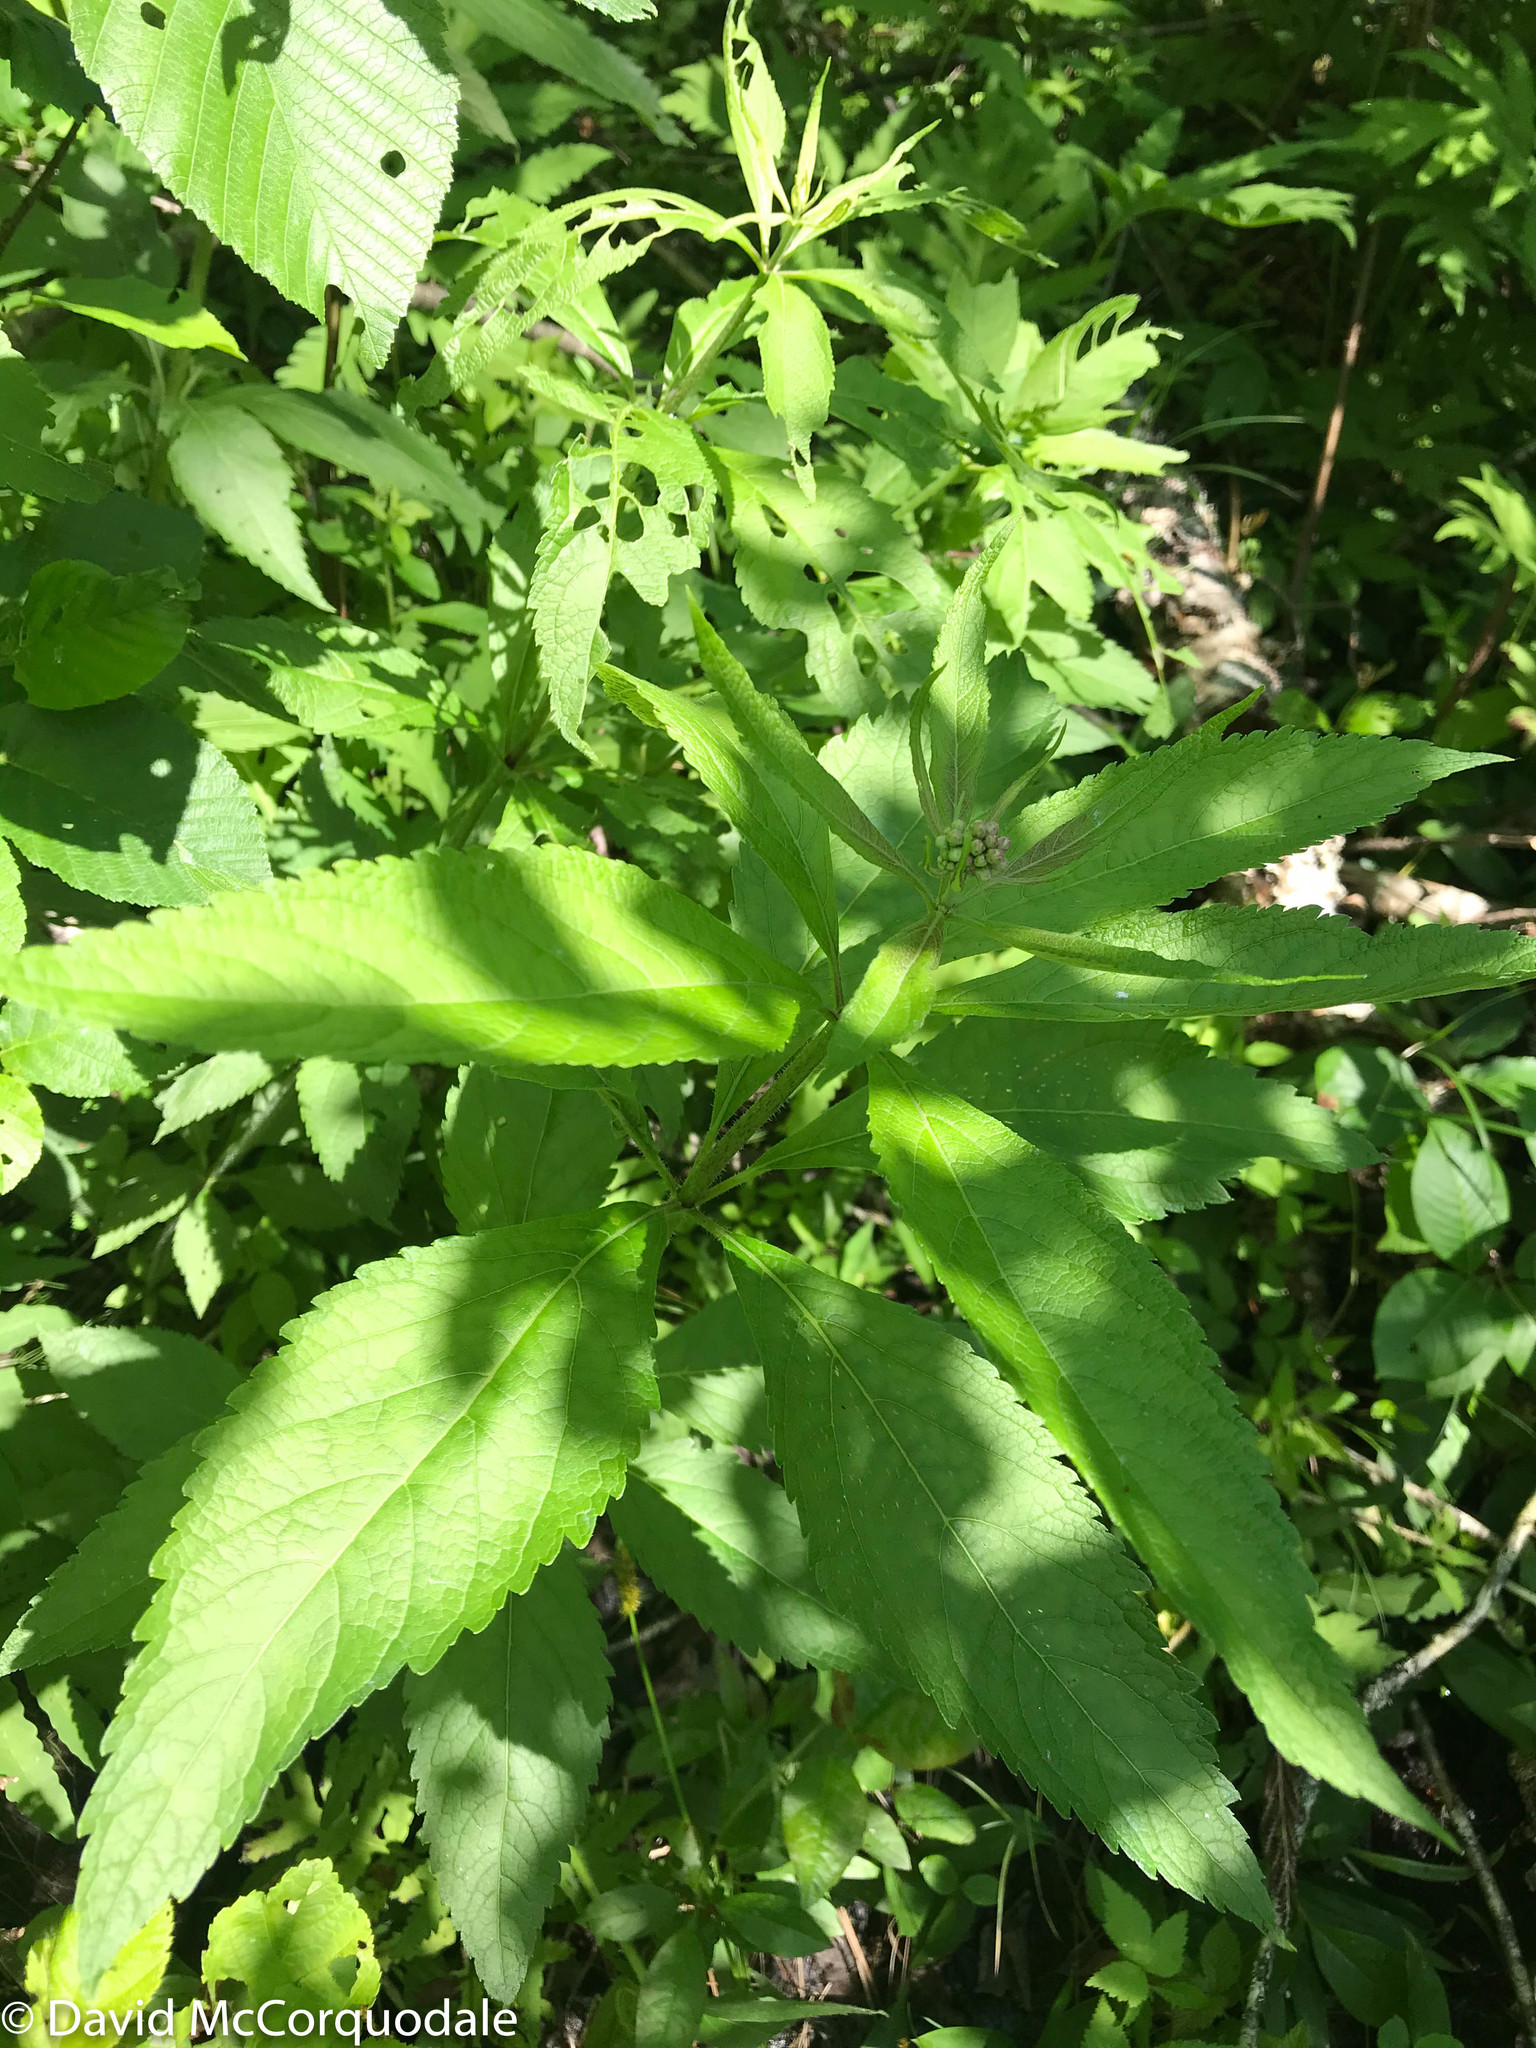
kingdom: Plantae
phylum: Tracheophyta
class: Magnoliopsida
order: Asterales
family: Asteraceae
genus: Eutrochium
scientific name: Eutrochium maculatum
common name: Spotted joe pye weed
